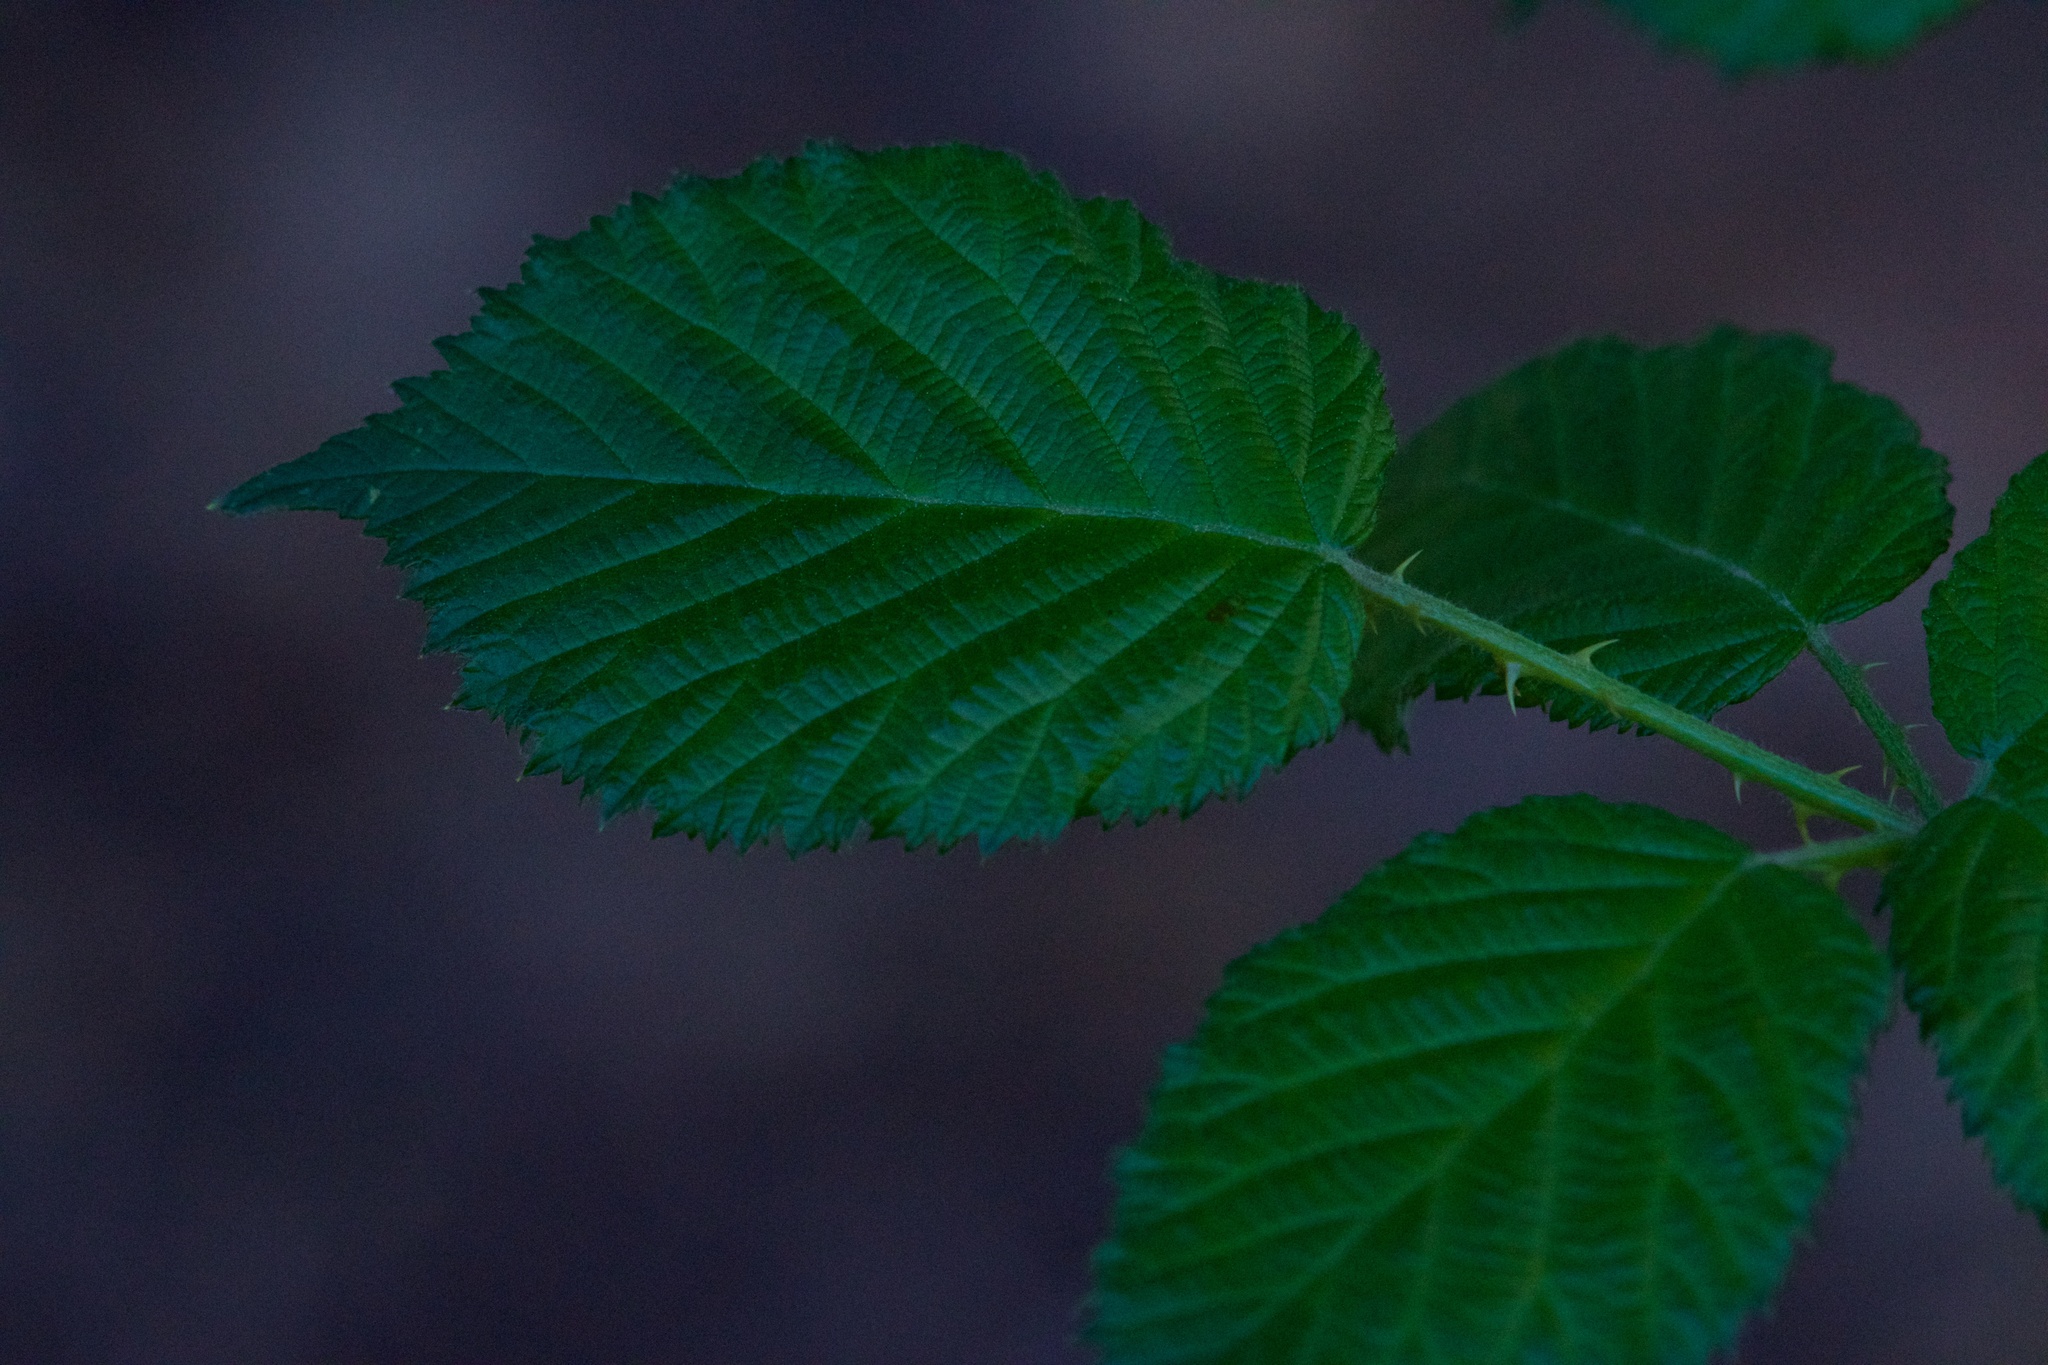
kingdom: Plantae
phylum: Tracheophyta
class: Magnoliopsida
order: Rosales
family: Rosaceae
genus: Rubus
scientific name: Rubus armeniacus
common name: Himalayan blackberry
